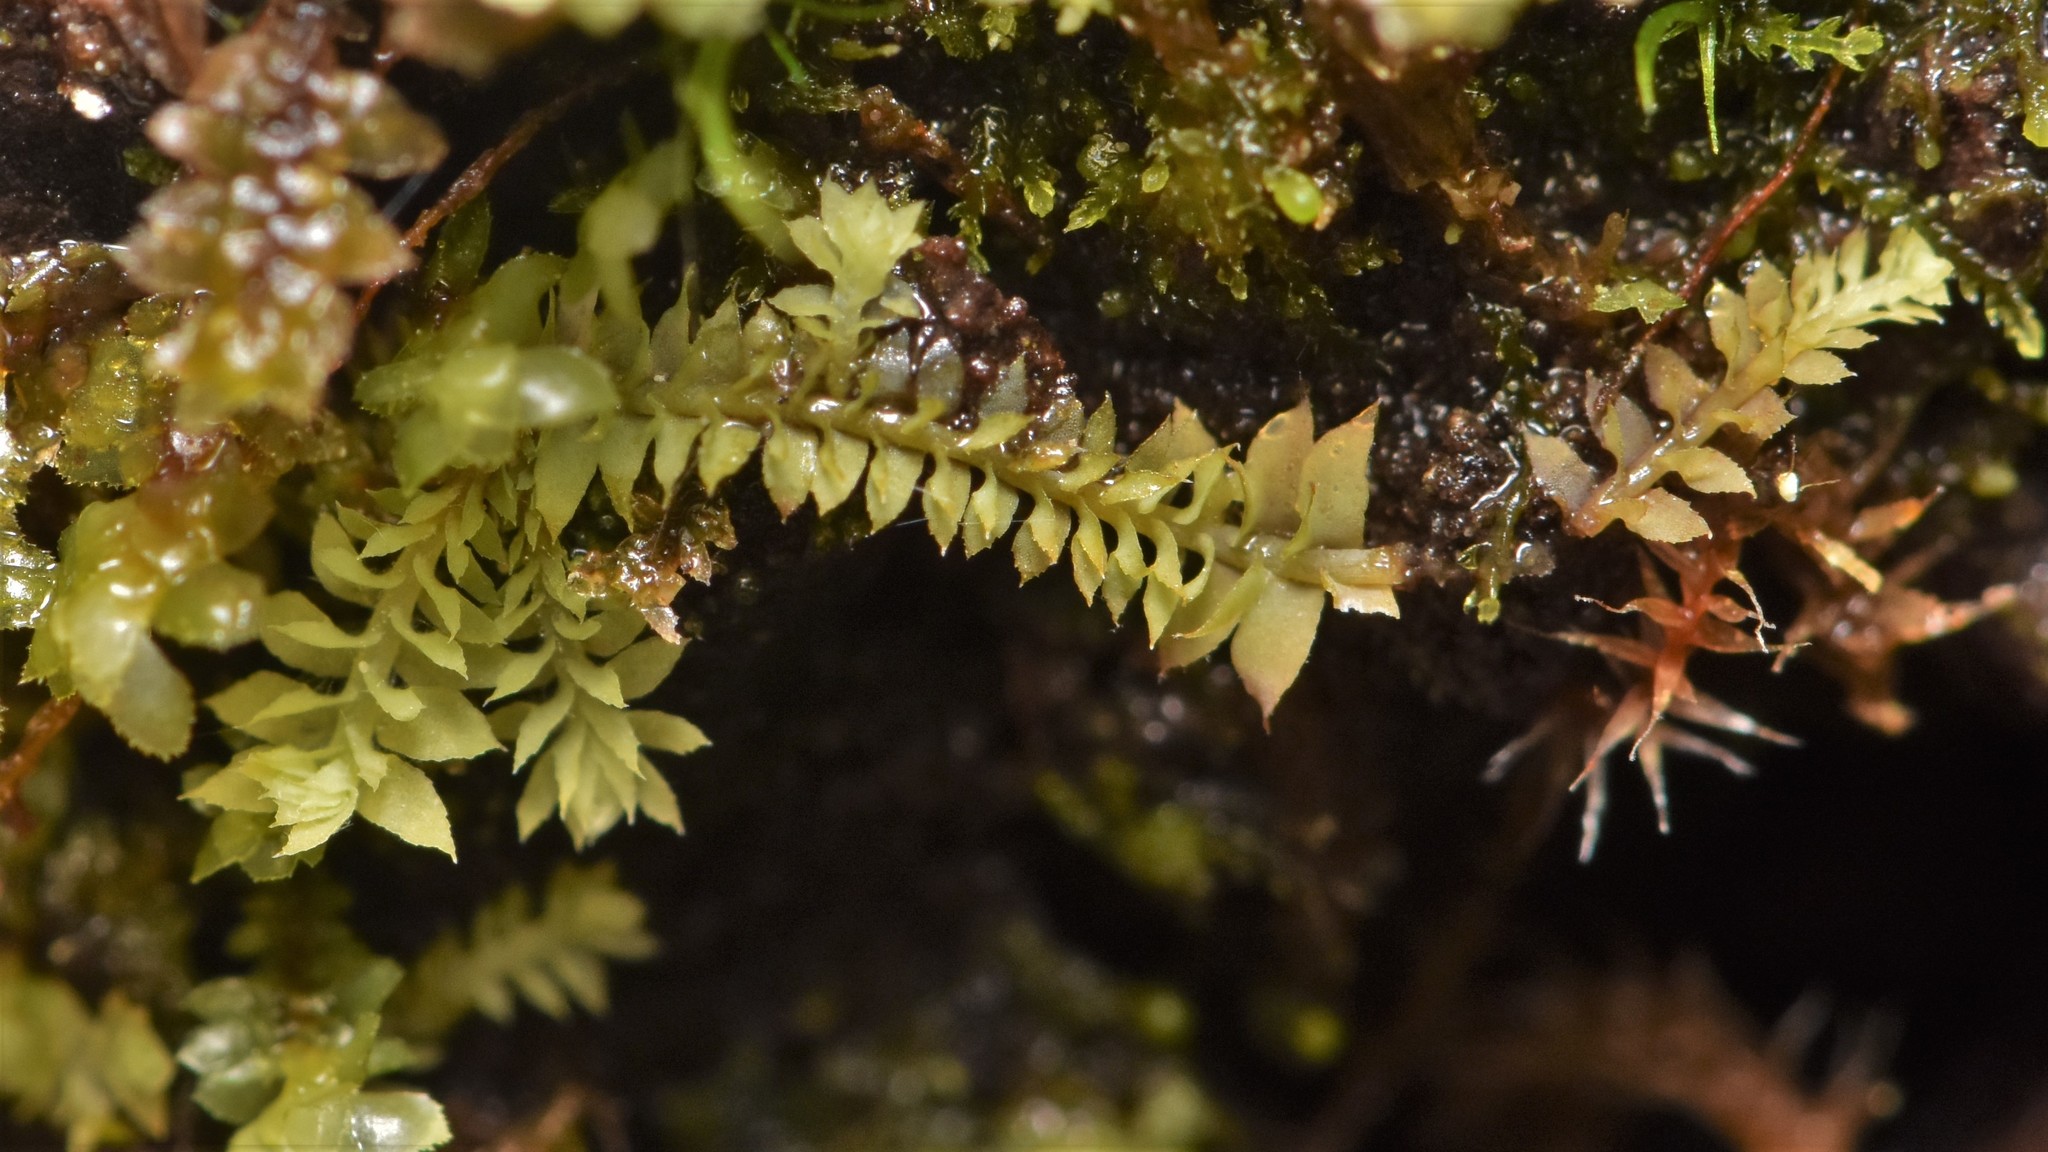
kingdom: Plantae
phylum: Marchantiophyta
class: Jungermanniopsida
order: Jungermanniales
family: Scapaniaceae
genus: Douinia
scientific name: Douinia ovata
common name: Waxy earwort
